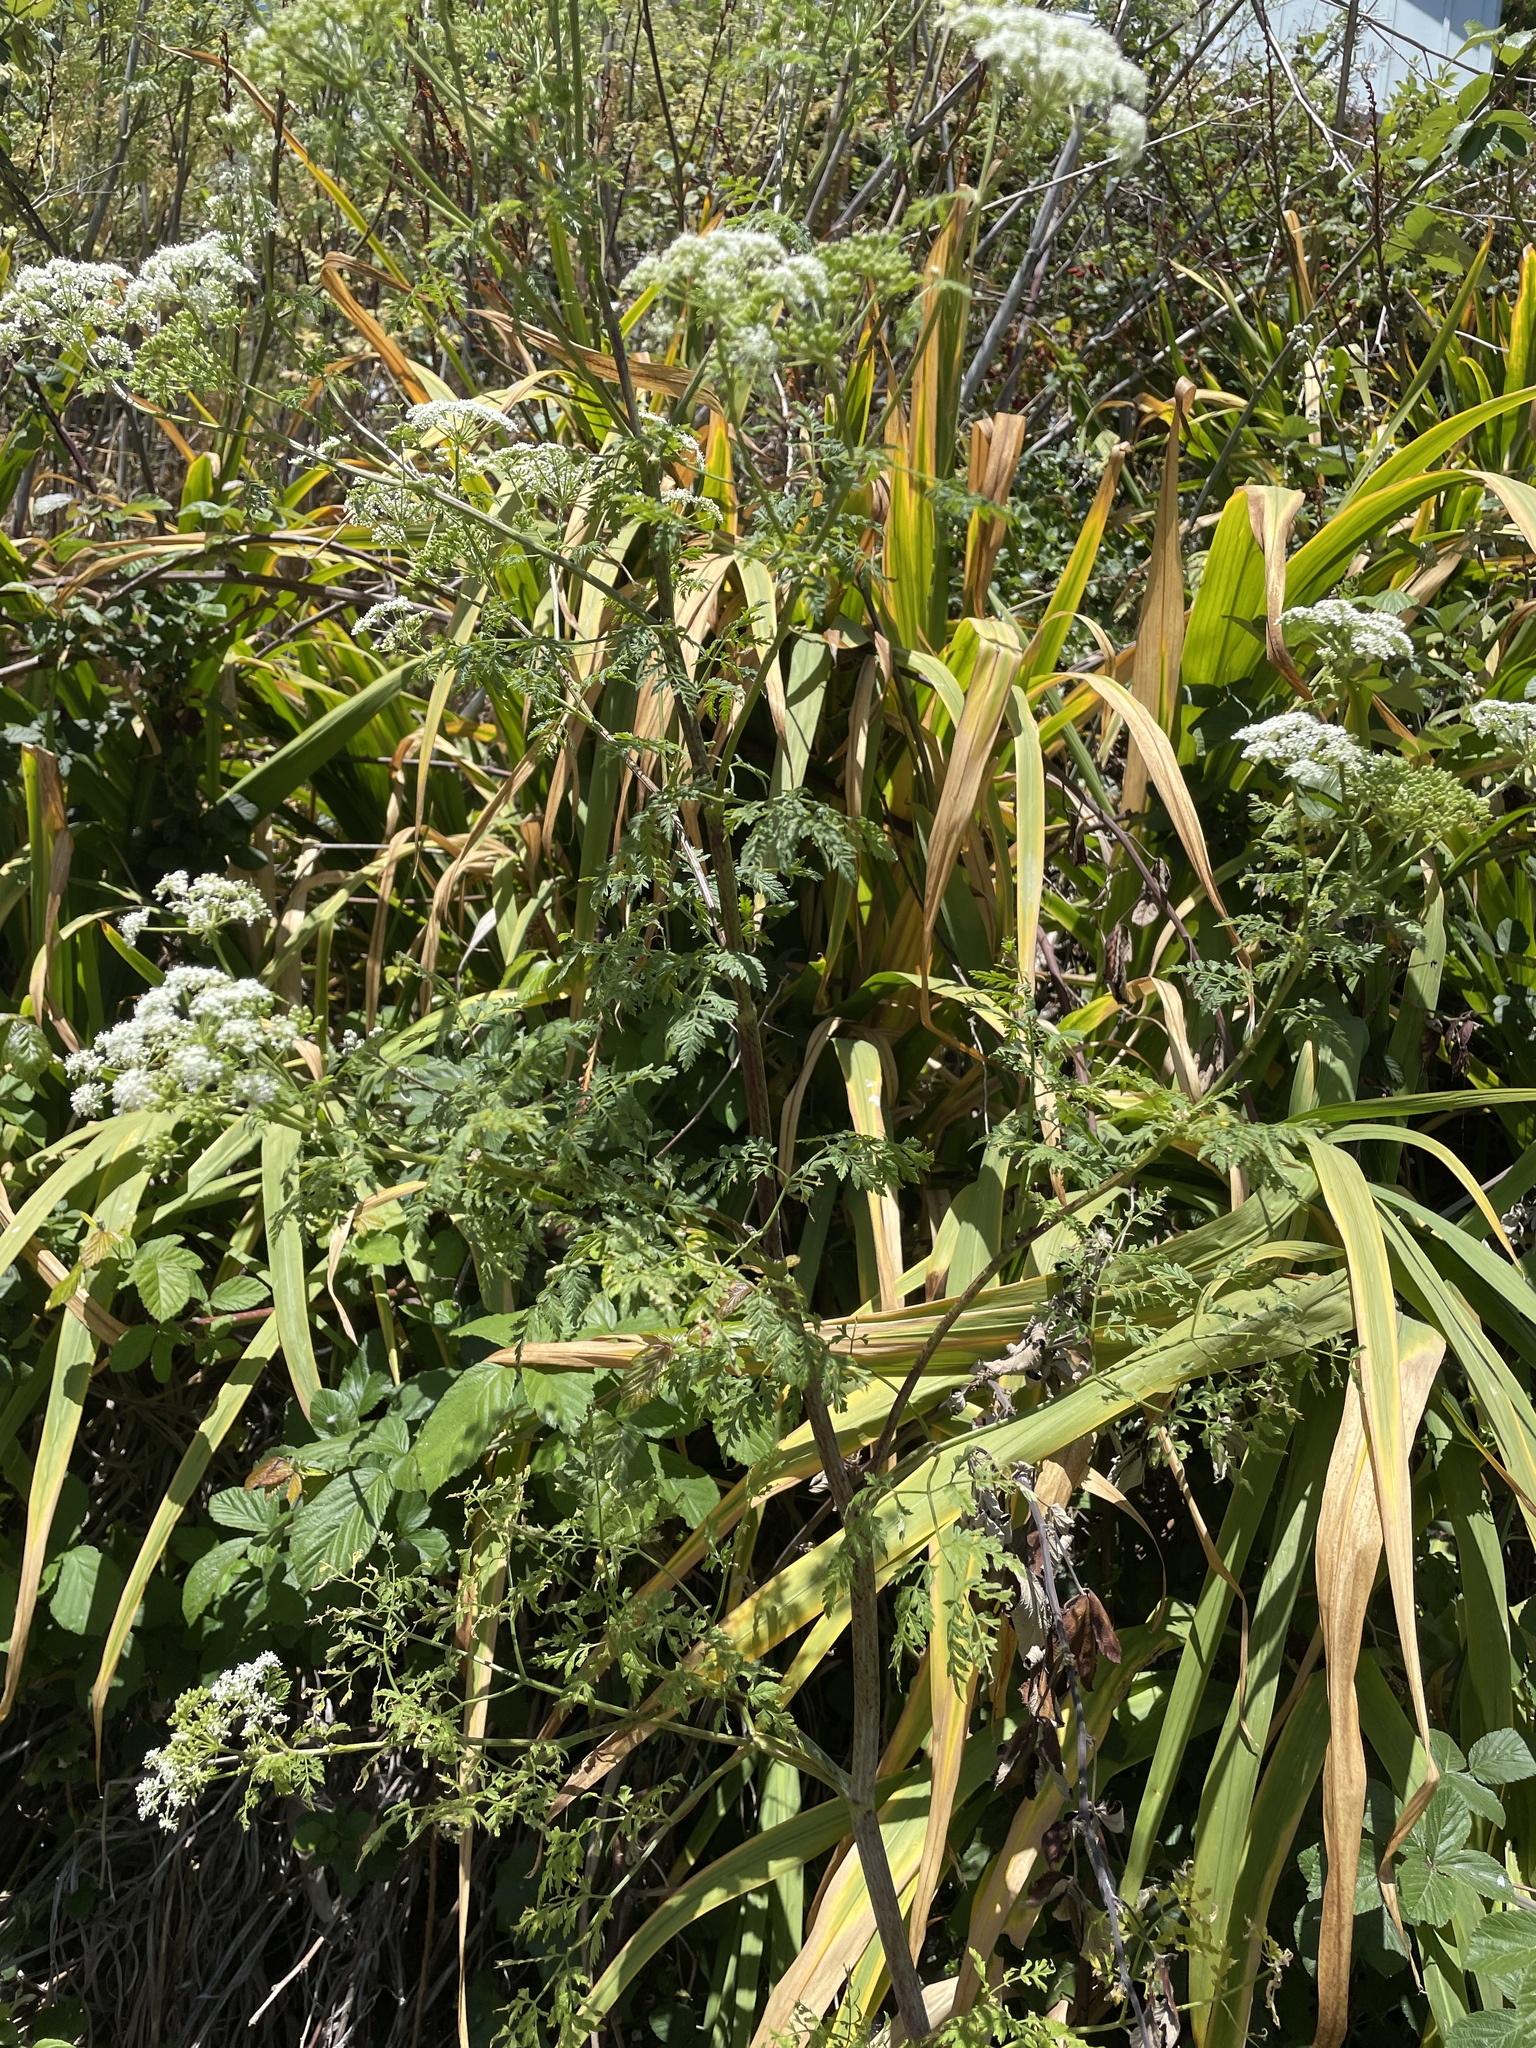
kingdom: Plantae
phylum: Tracheophyta
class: Magnoliopsida
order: Apiales
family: Apiaceae
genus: Conium
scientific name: Conium maculatum
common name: Hemlock
